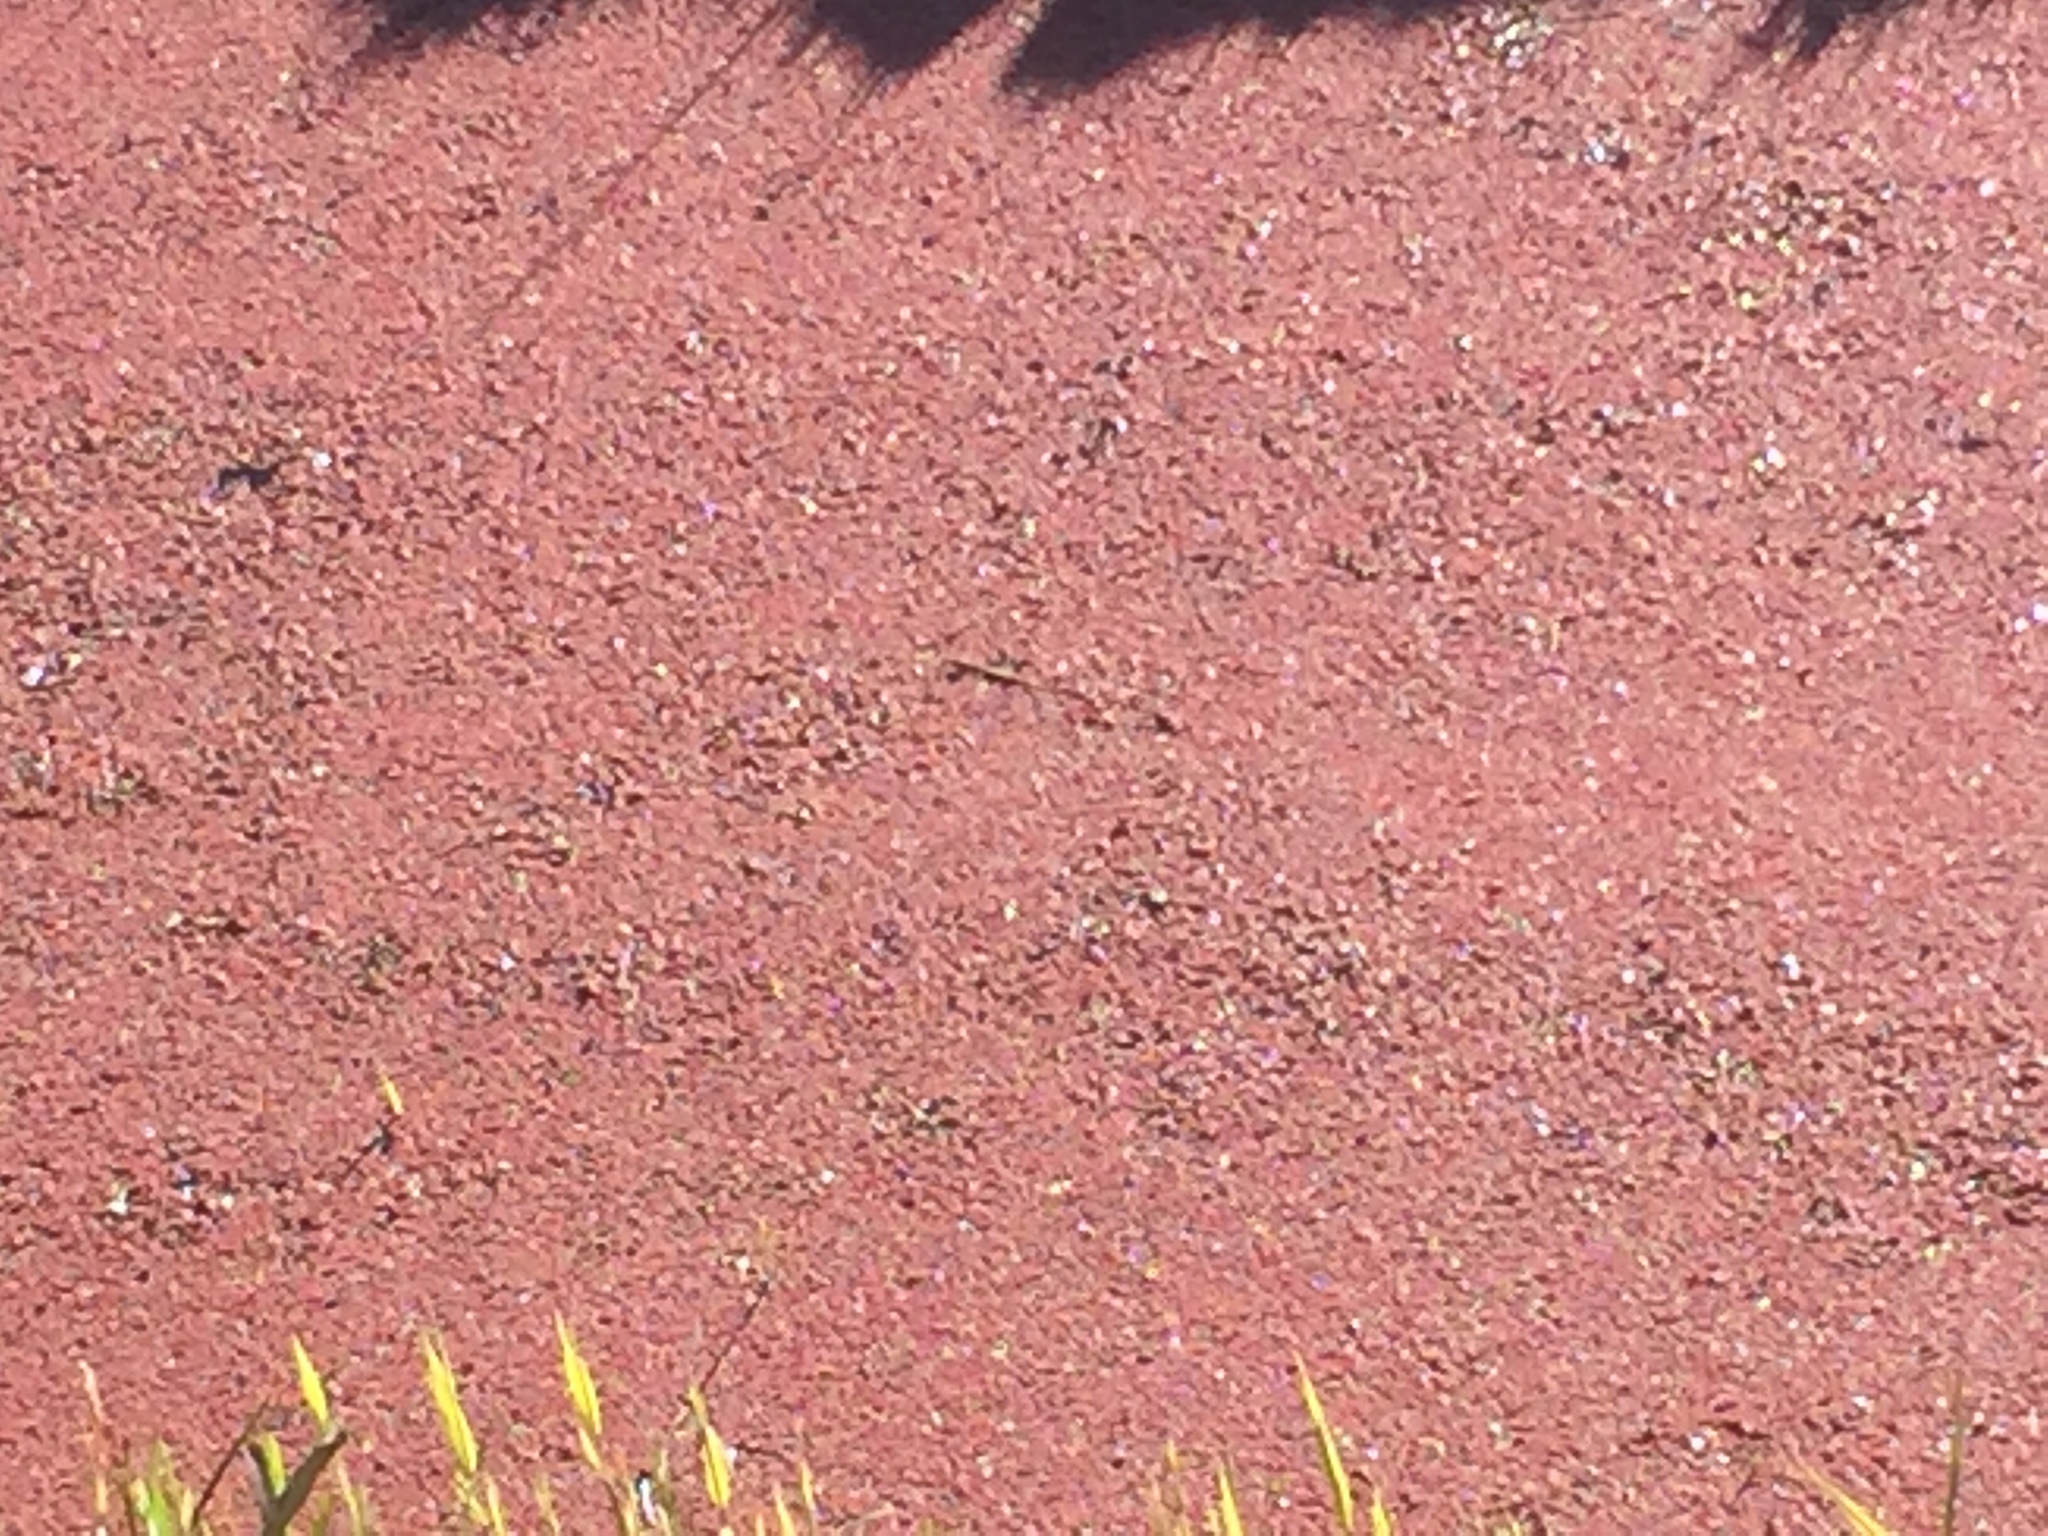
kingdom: Plantae
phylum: Tracheophyta
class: Polypodiopsida
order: Salviniales
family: Salviniaceae
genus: Azolla
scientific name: Azolla filiculoides
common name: Water fern
